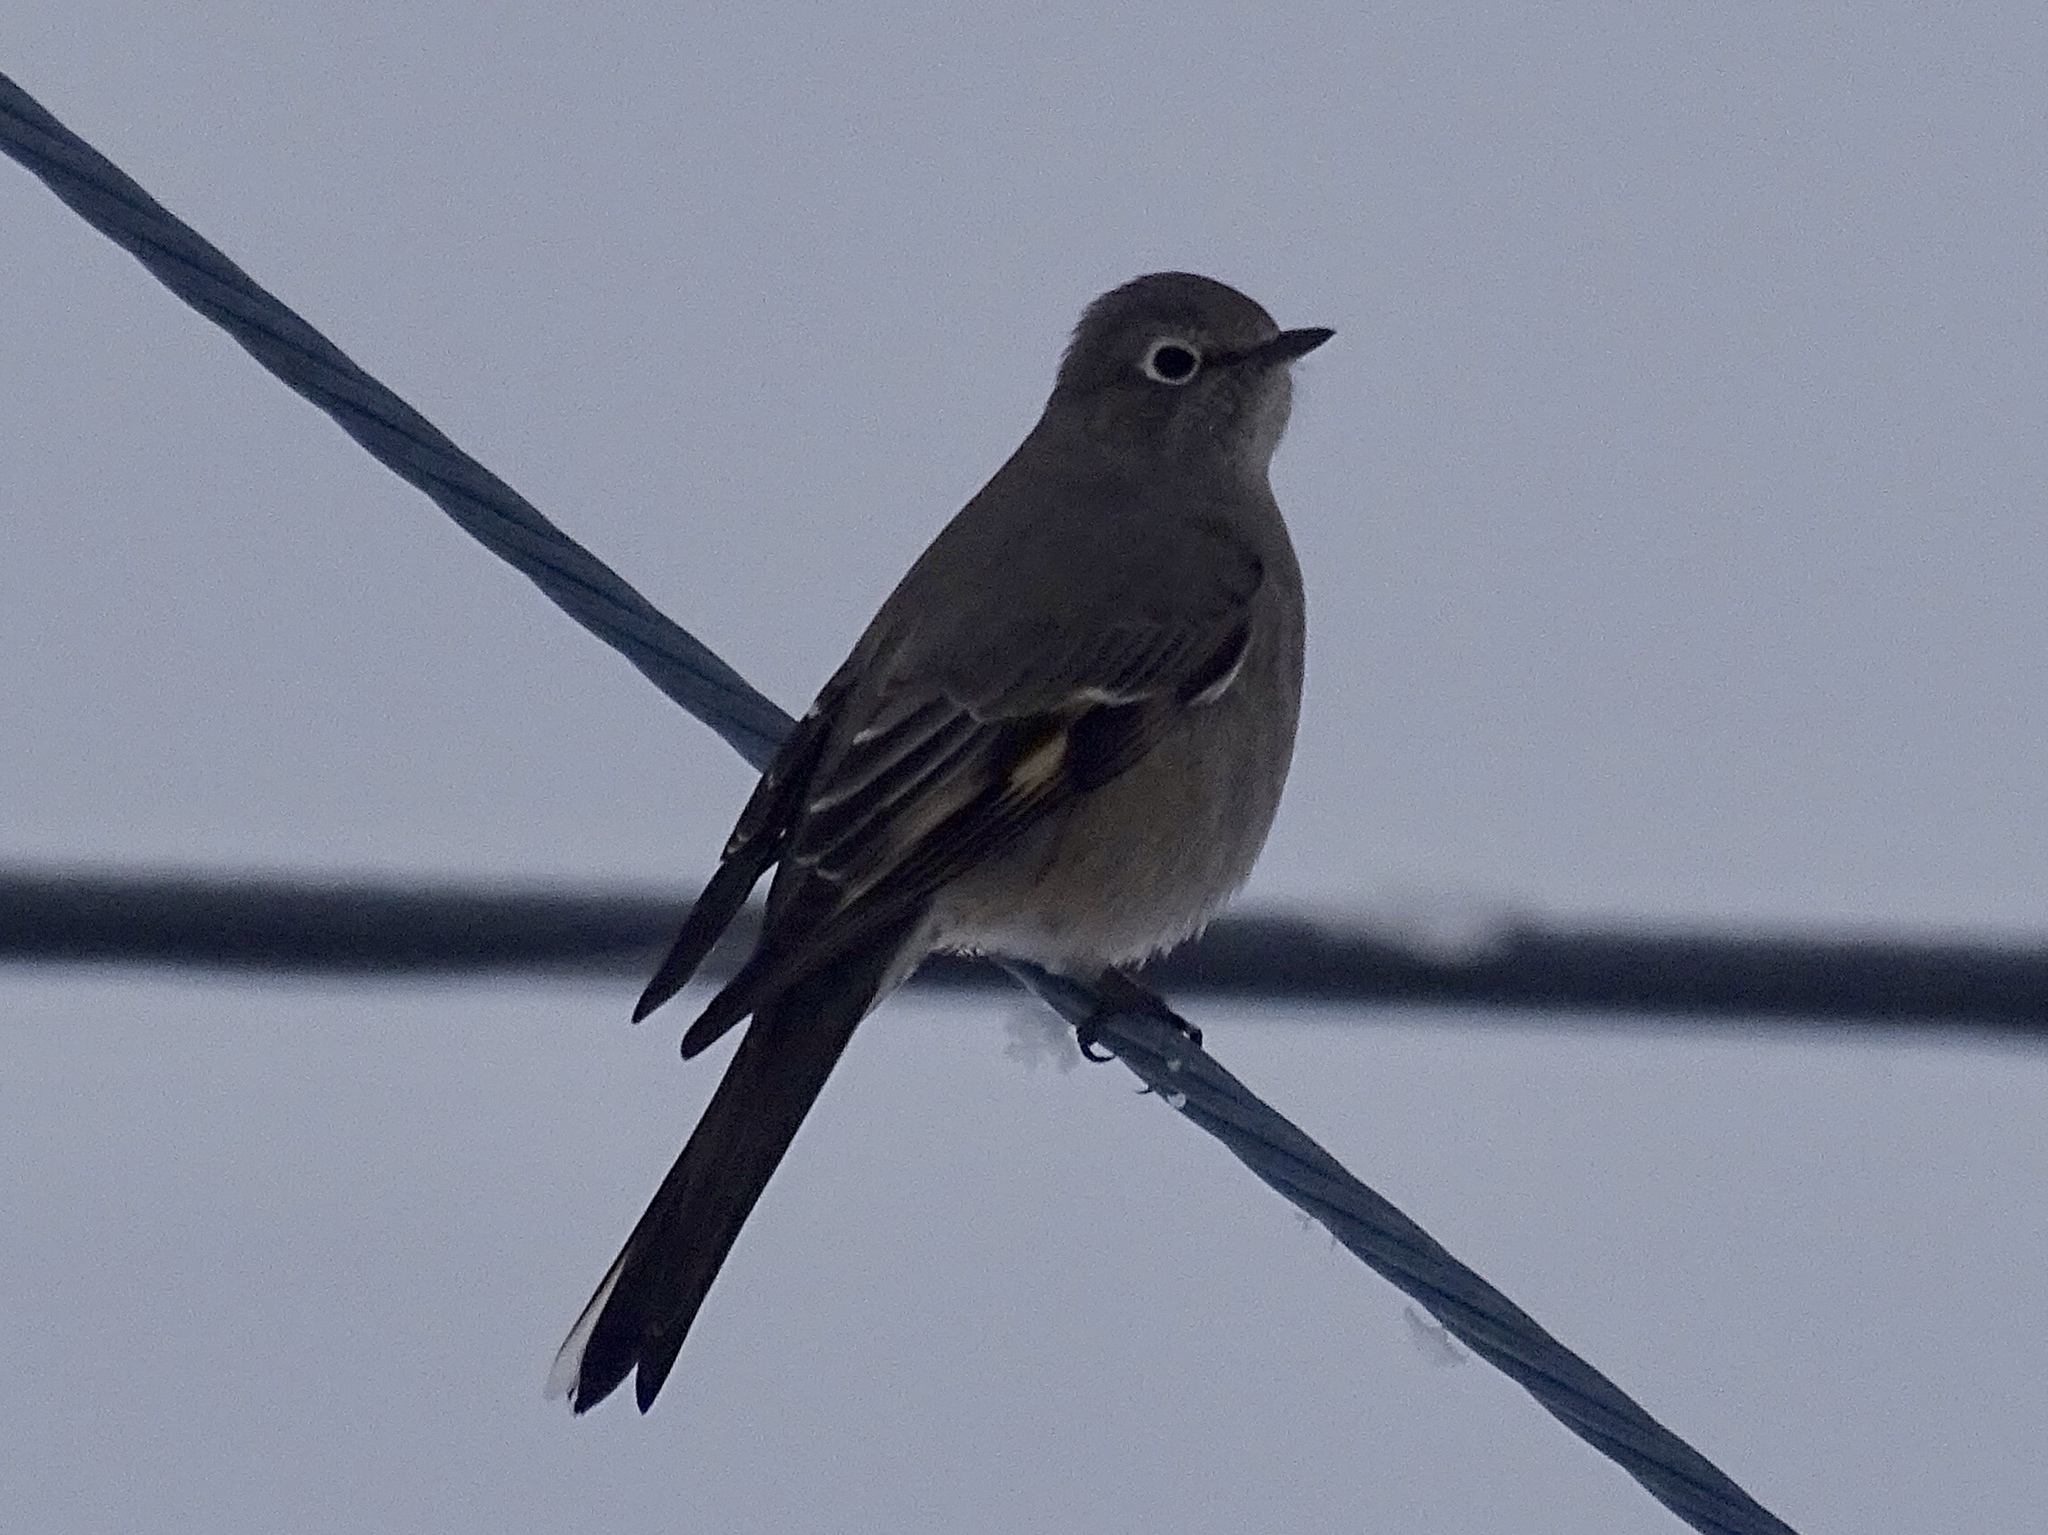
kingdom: Animalia
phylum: Chordata
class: Aves
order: Passeriformes
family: Turdidae
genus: Myadestes
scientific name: Myadestes townsendi
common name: Townsend's solitaire
